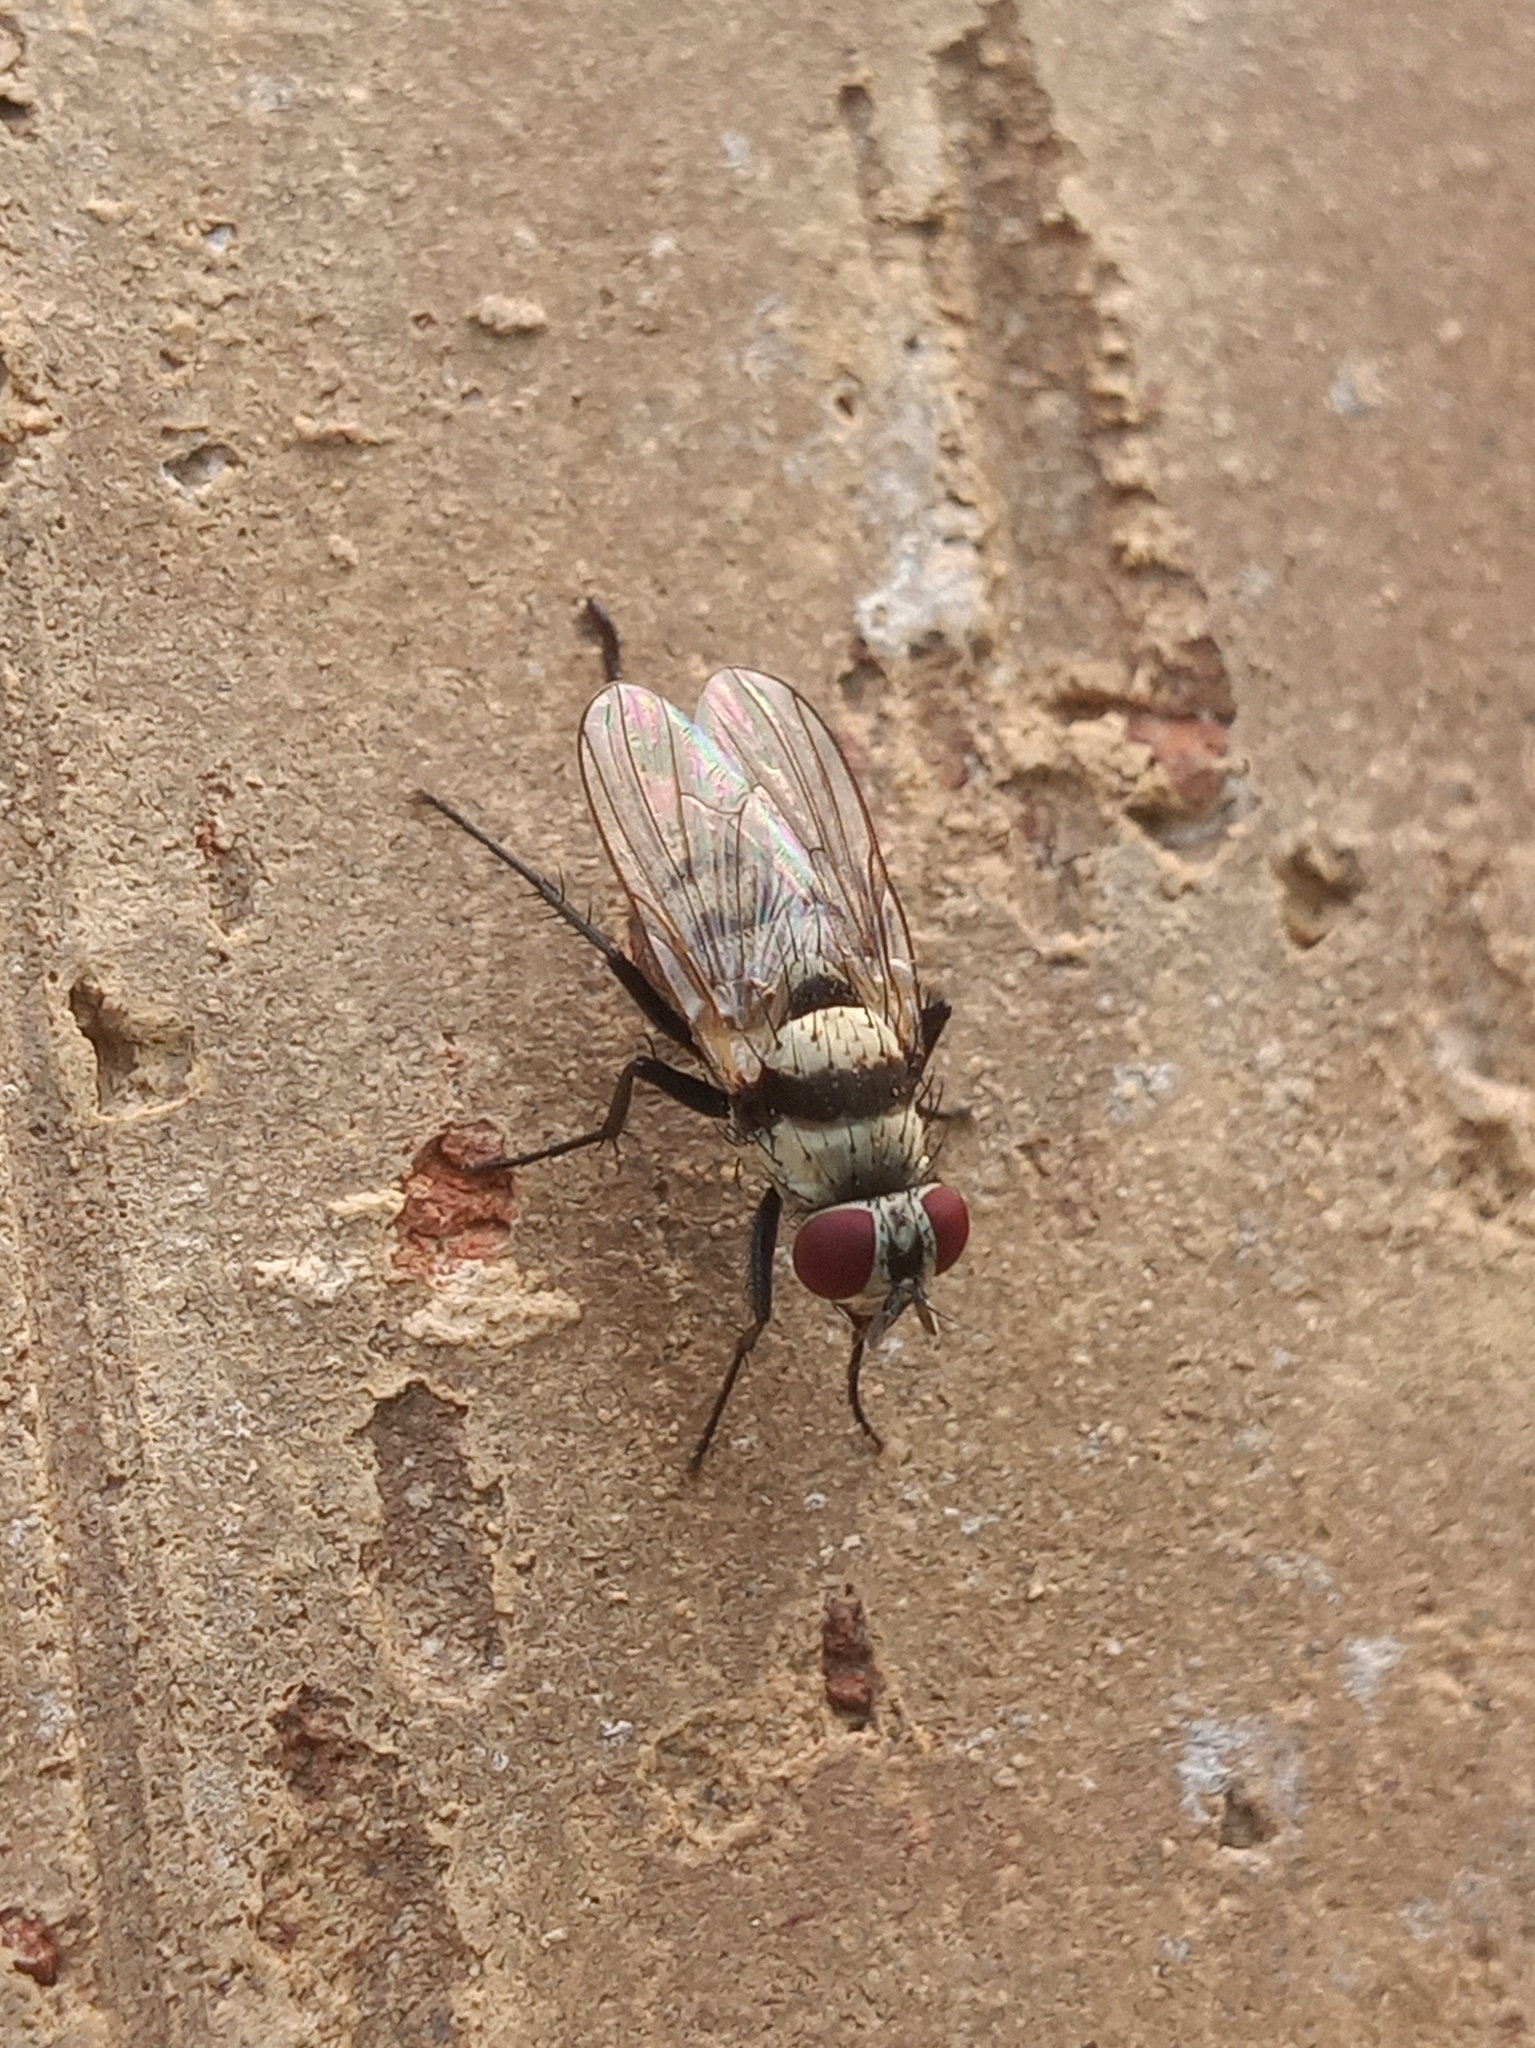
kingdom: Animalia
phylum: Arthropoda
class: Insecta
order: Diptera
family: Anthomyiidae
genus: Anthomyia
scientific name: Anthomyia illocata
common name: Fly
